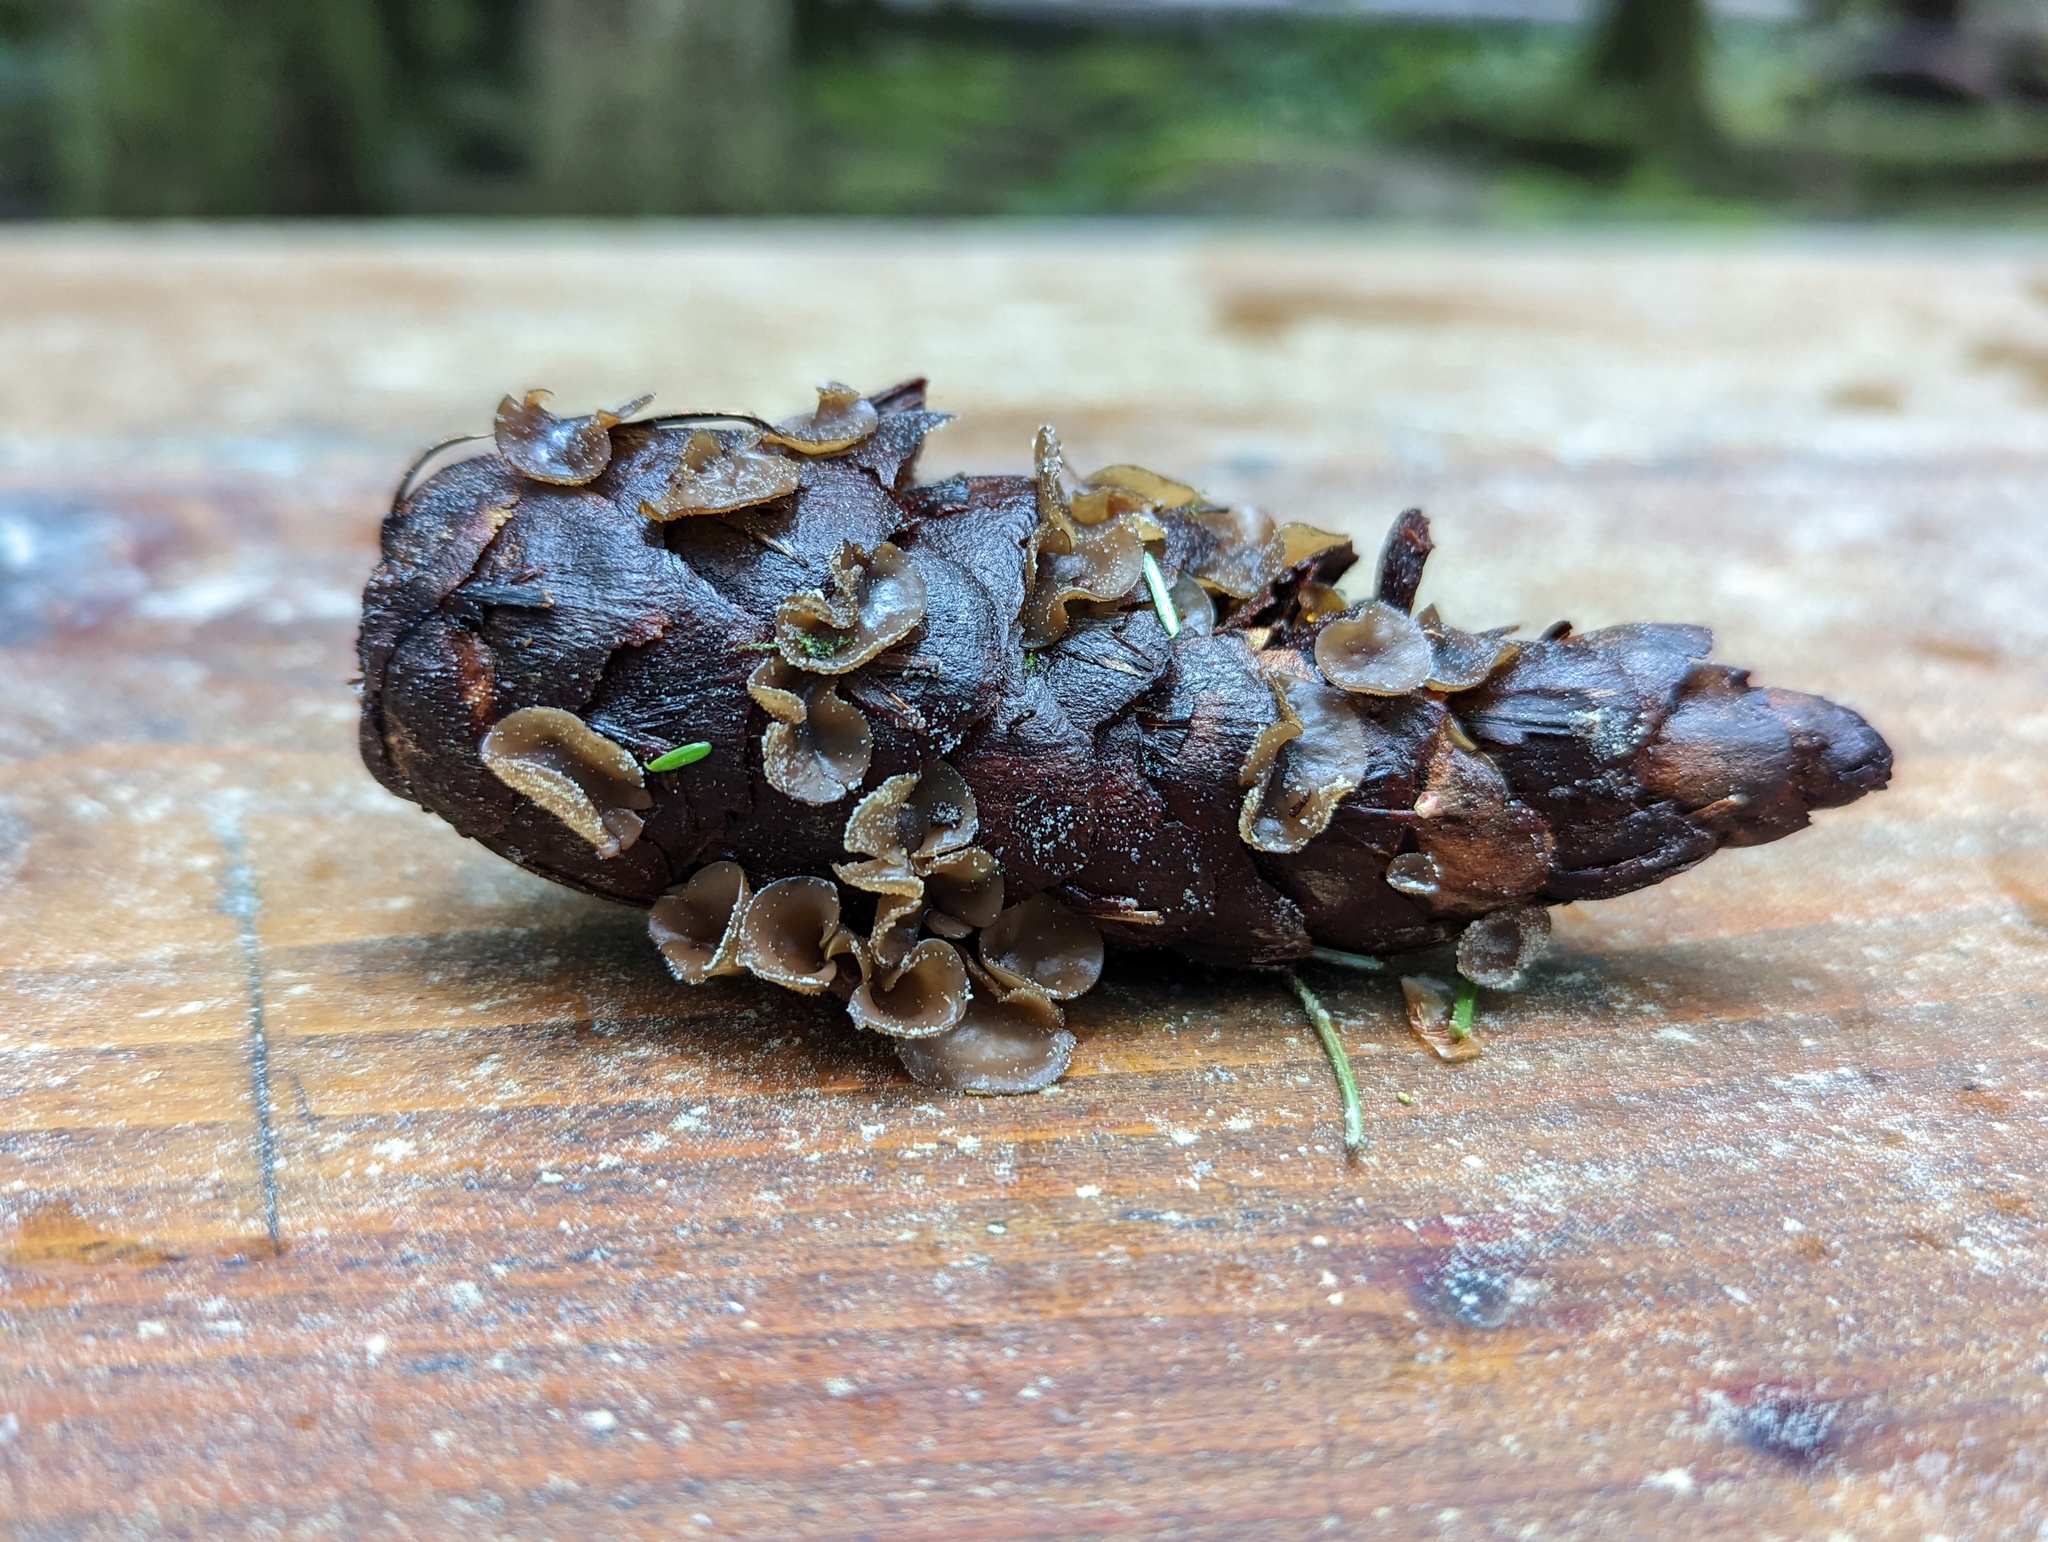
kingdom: Fungi
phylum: Ascomycota
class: Leotiomycetes
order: Helotiales
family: Sclerotiniaceae
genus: Ciboria
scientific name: Ciboria rufofusca
